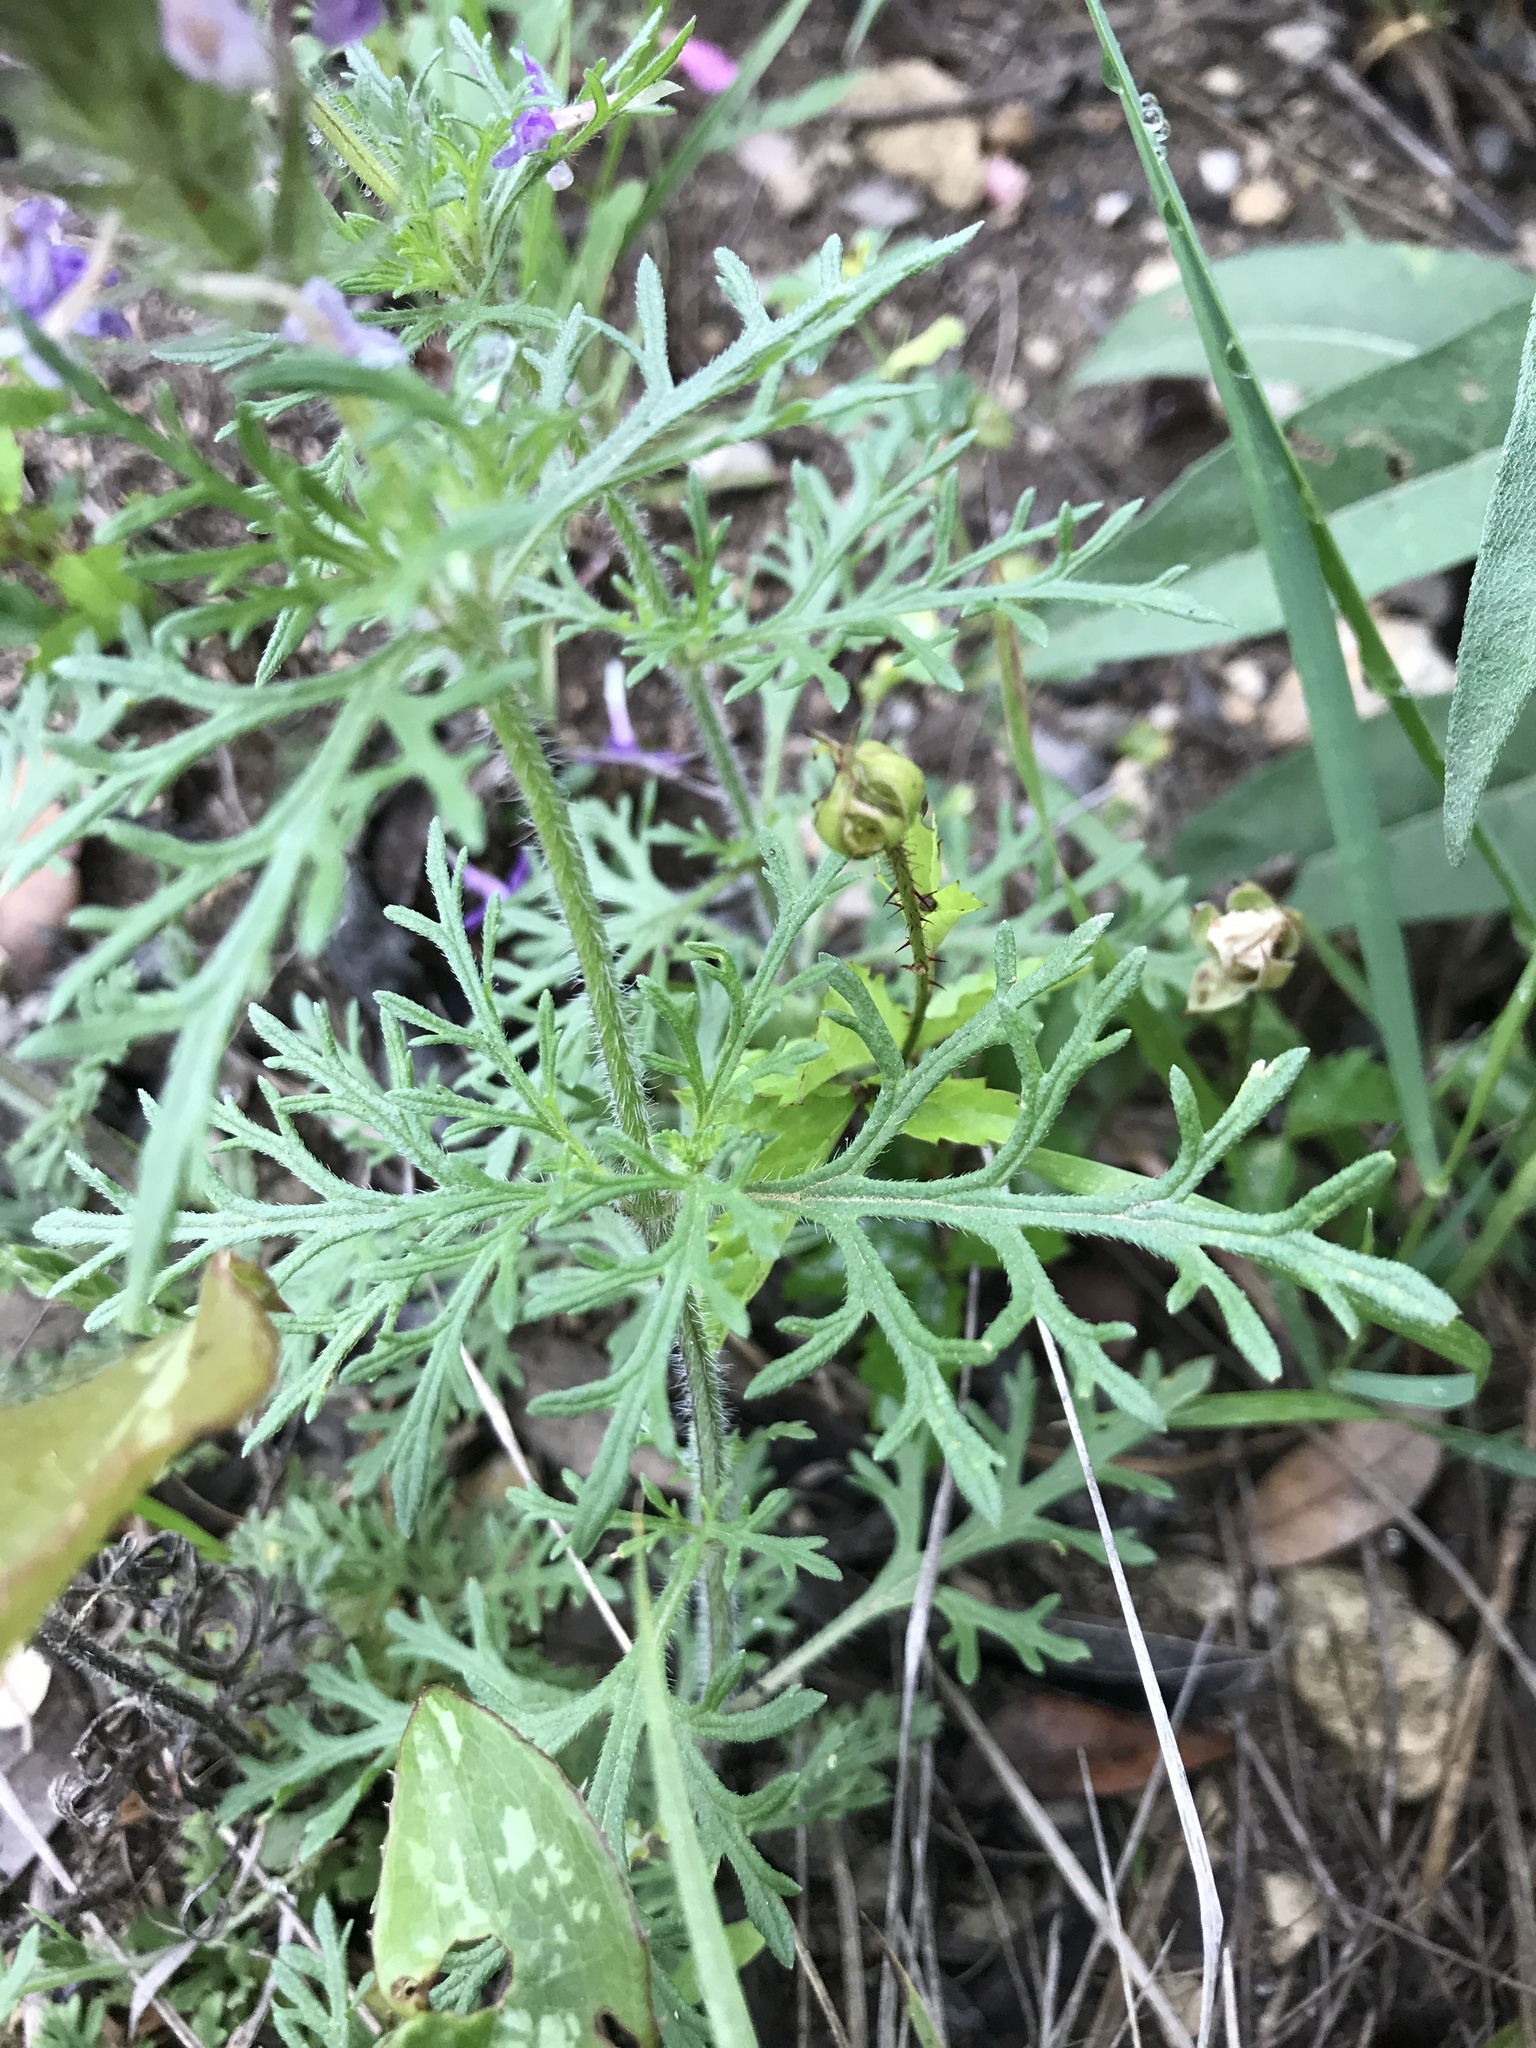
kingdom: Plantae
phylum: Tracheophyta
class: Magnoliopsida
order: Lamiales
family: Verbenaceae
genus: Verbena
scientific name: Verbena bipinnatifida
